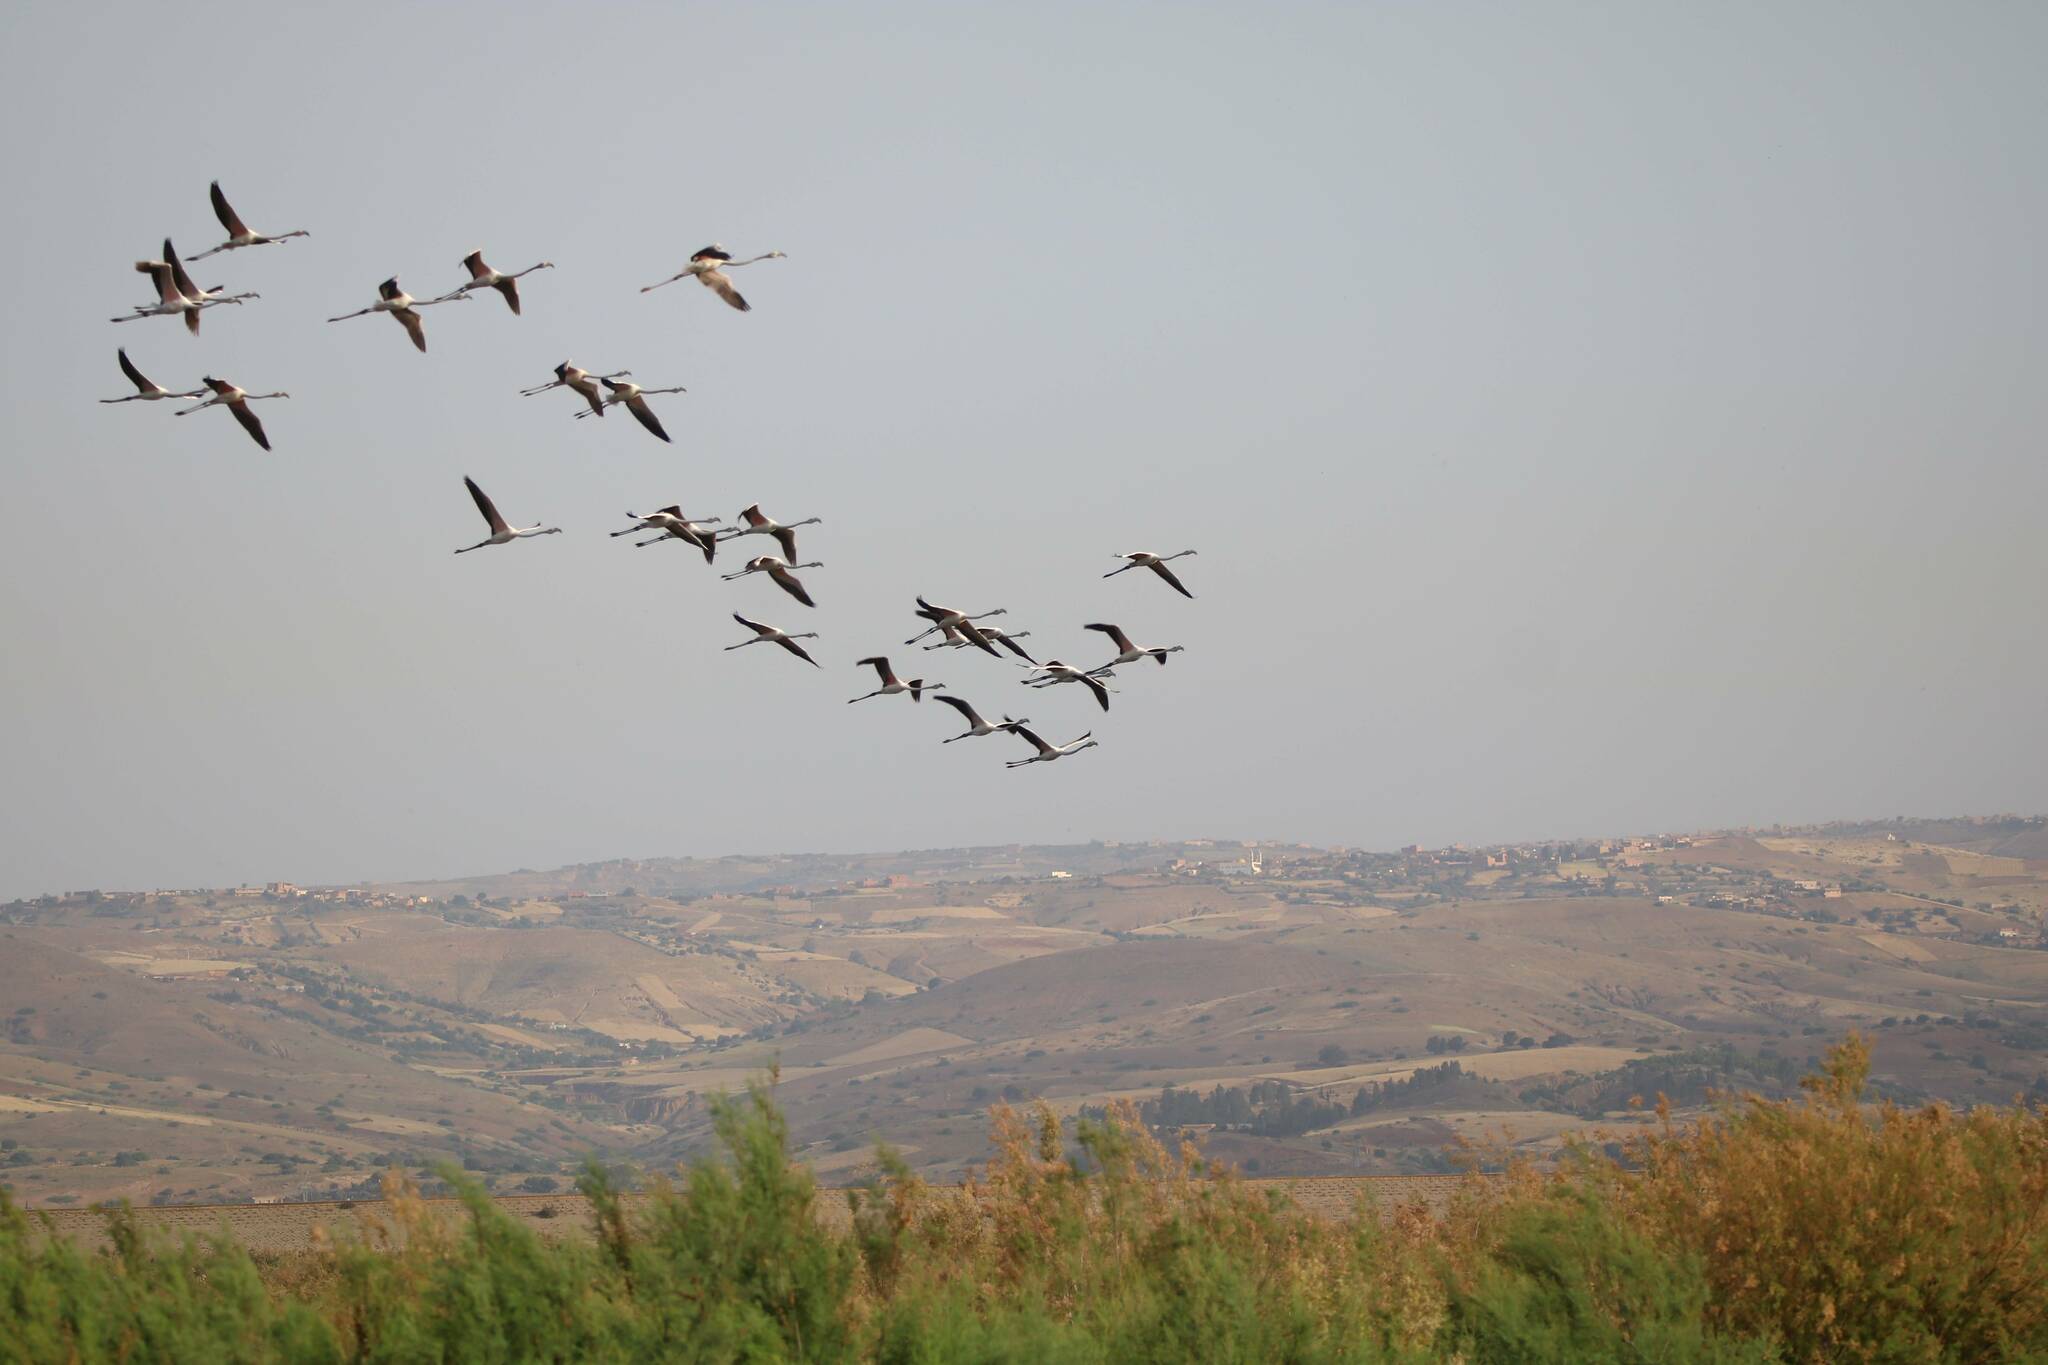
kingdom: Animalia
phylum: Chordata
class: Aves
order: Phoenicopteriformes
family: Phoenicopteridae
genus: Phoenicopterus
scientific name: Phoenicopterus roseus
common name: Greater flamingo
